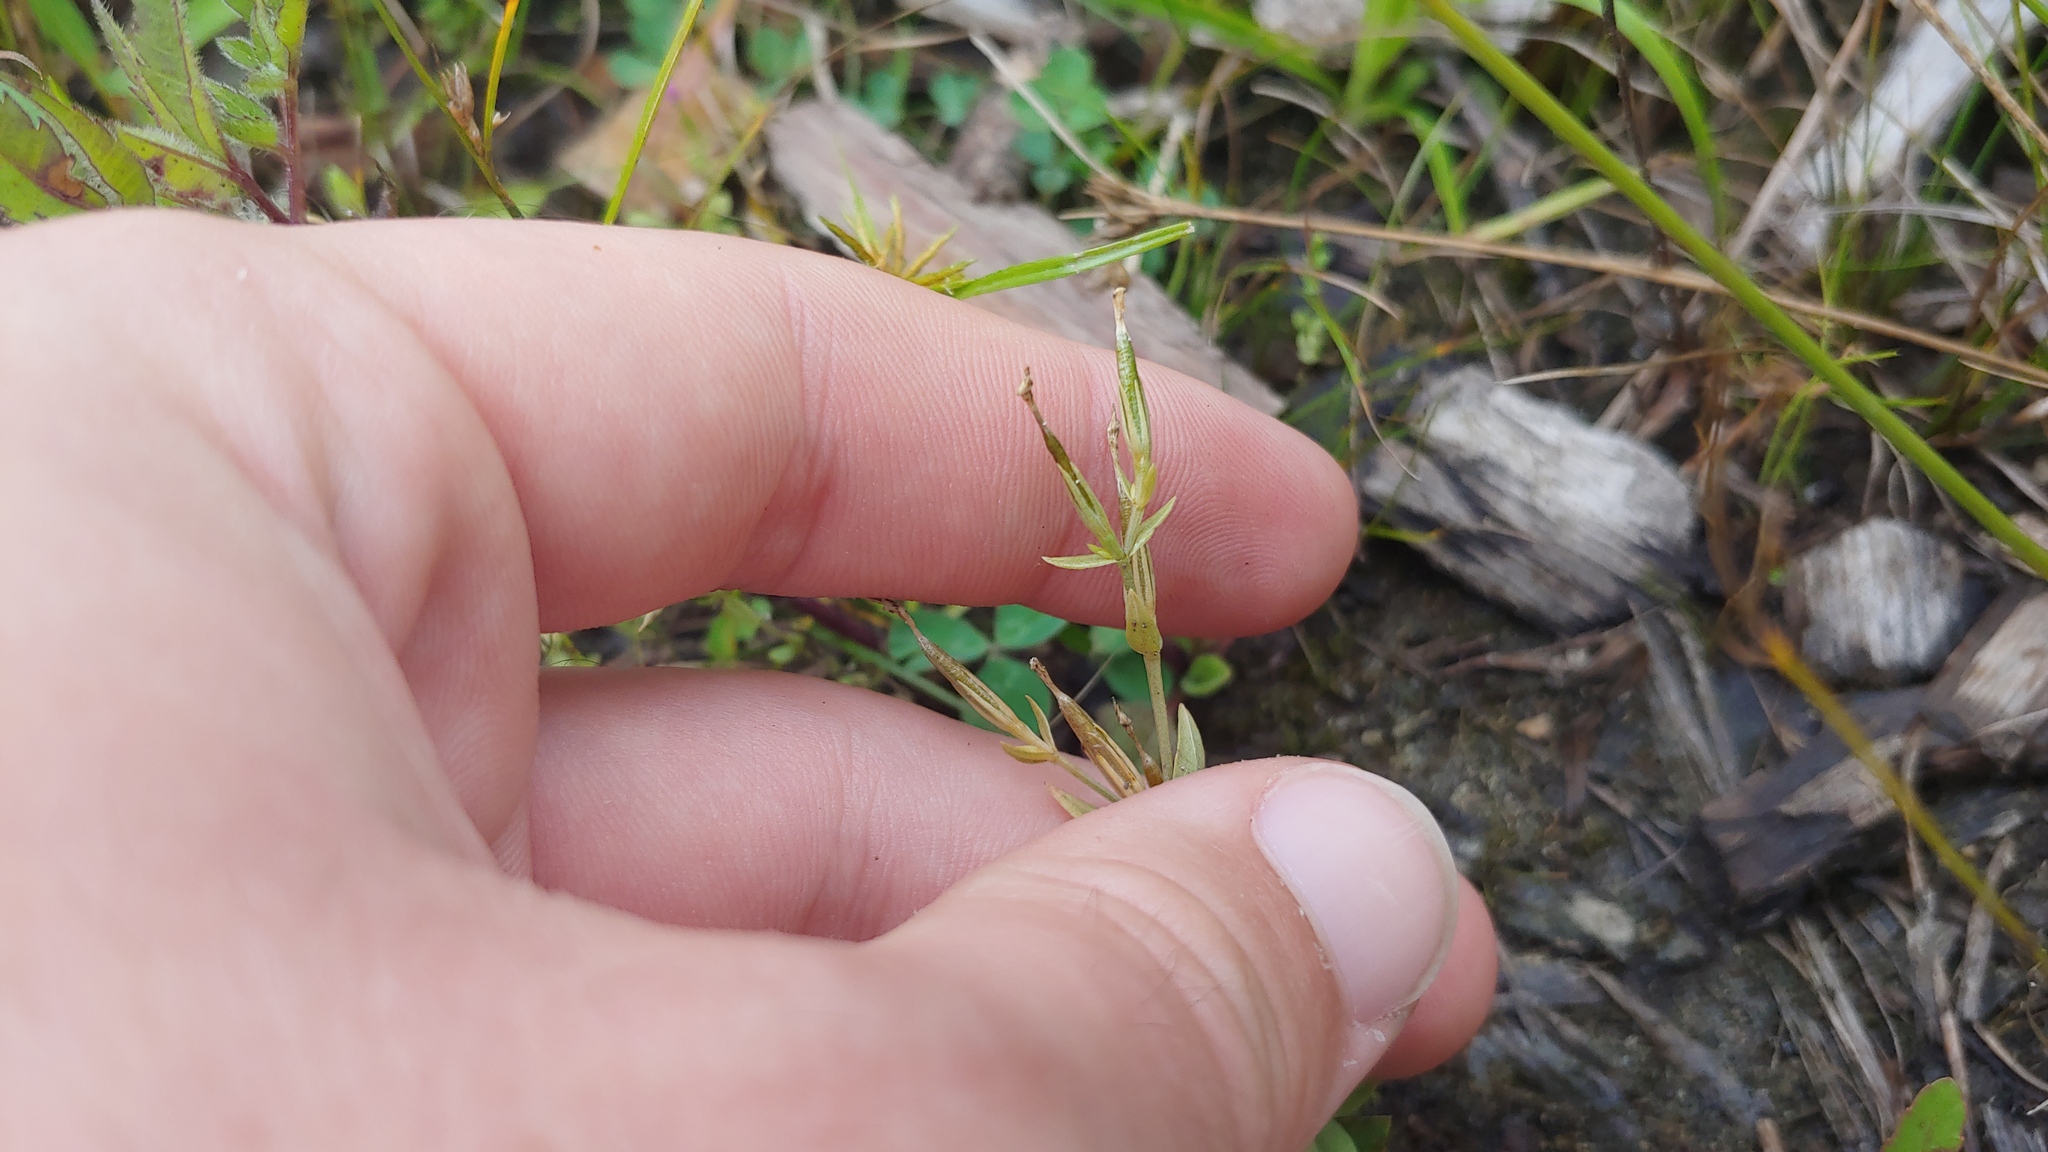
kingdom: Plantae
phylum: Tracheophyta
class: Magnoliopsida
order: Gentianales
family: Gentianaceae
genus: Centaurium
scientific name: Centaurium pulchellum
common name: Lesser centaury
